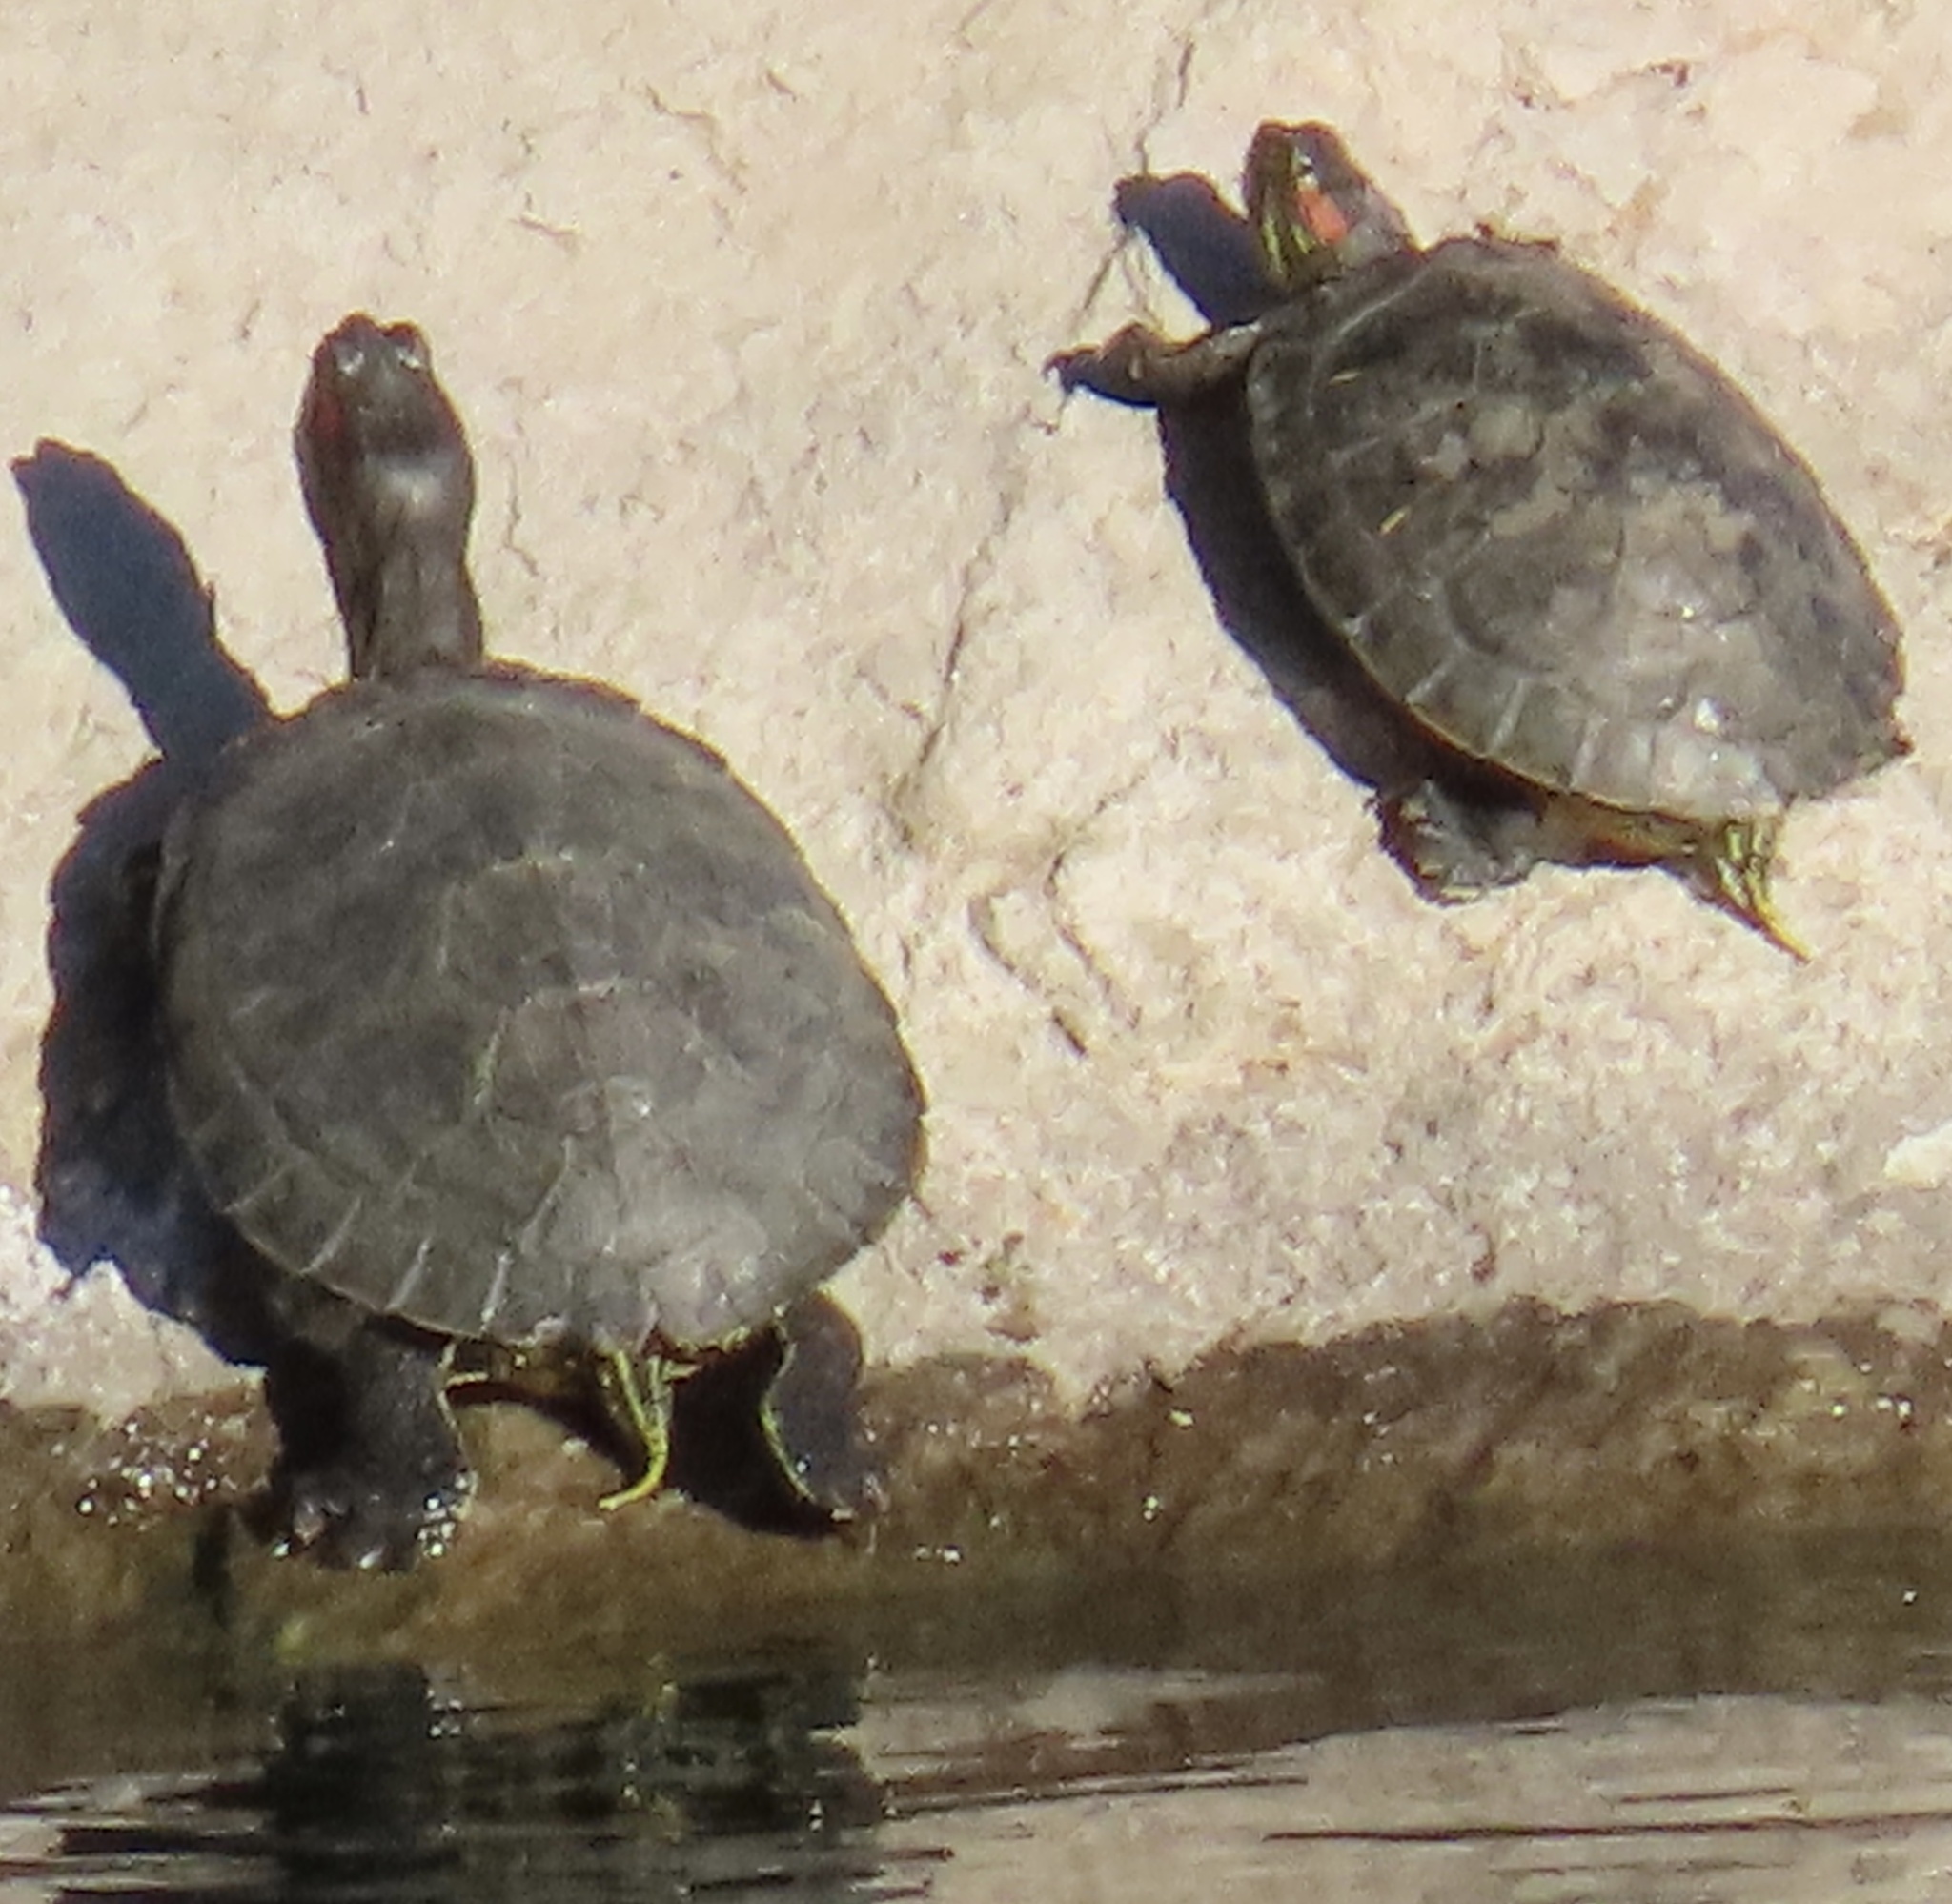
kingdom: Animalia
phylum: Chordata
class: Testudines
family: Emydidae
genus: Trachemys
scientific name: Trachemys scripta
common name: Slider
